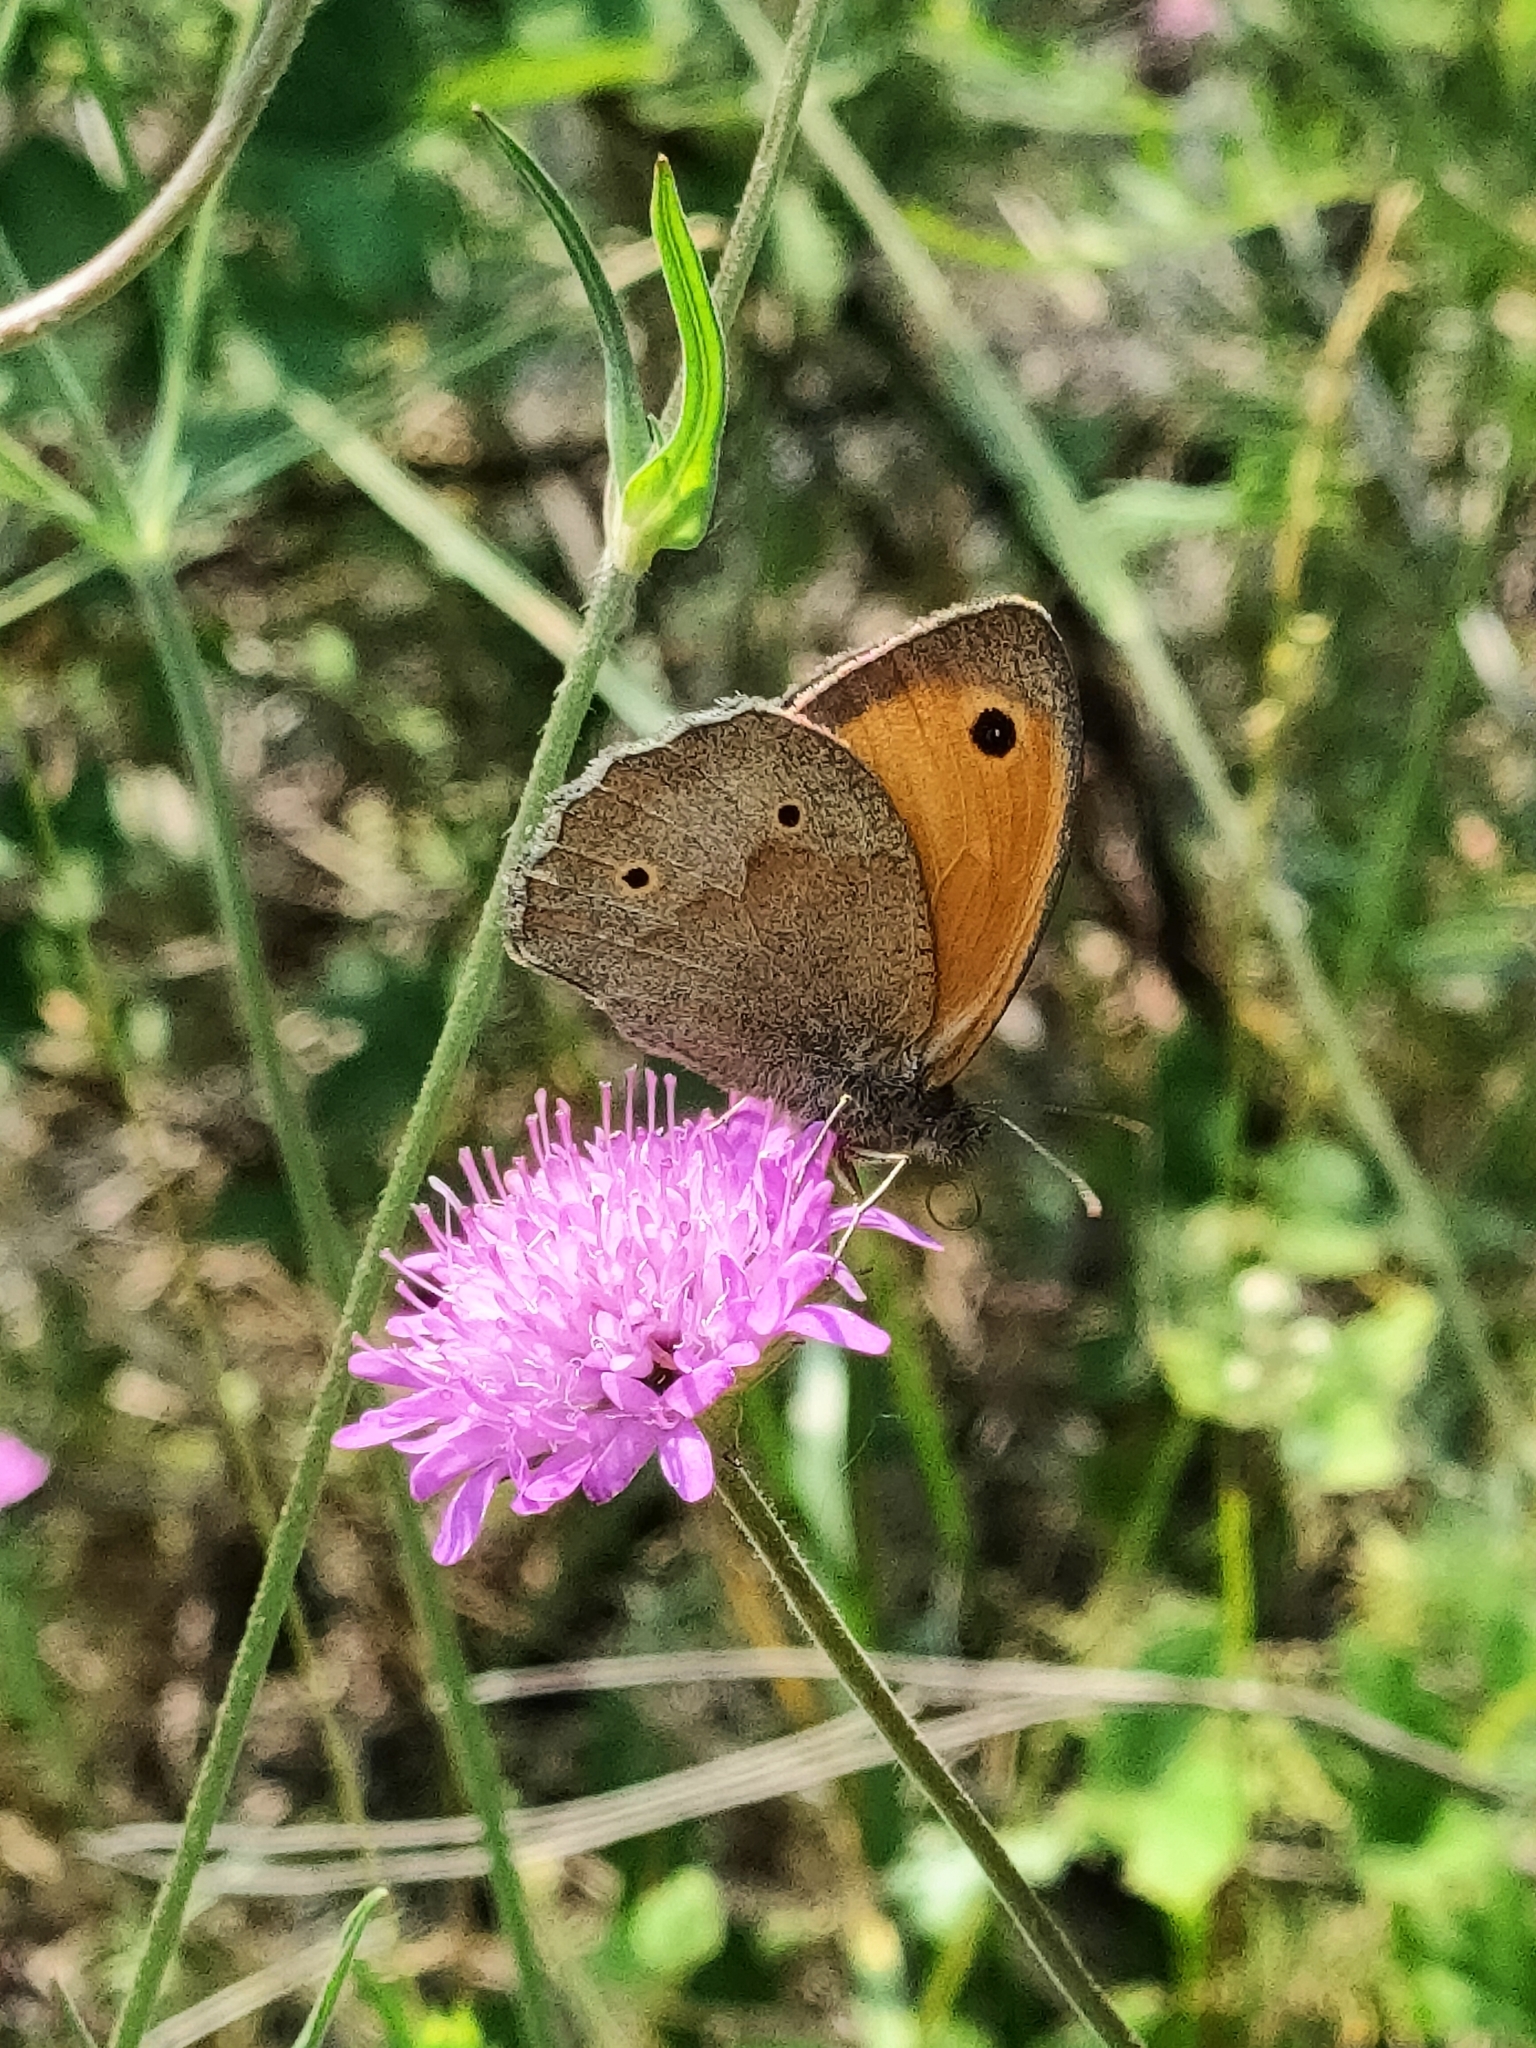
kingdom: Animalia
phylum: Arthropoda
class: Insecta
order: Lepidoptera
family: Nymphalidae
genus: Maniola
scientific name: Maniola jurtina
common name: Meadow brown
